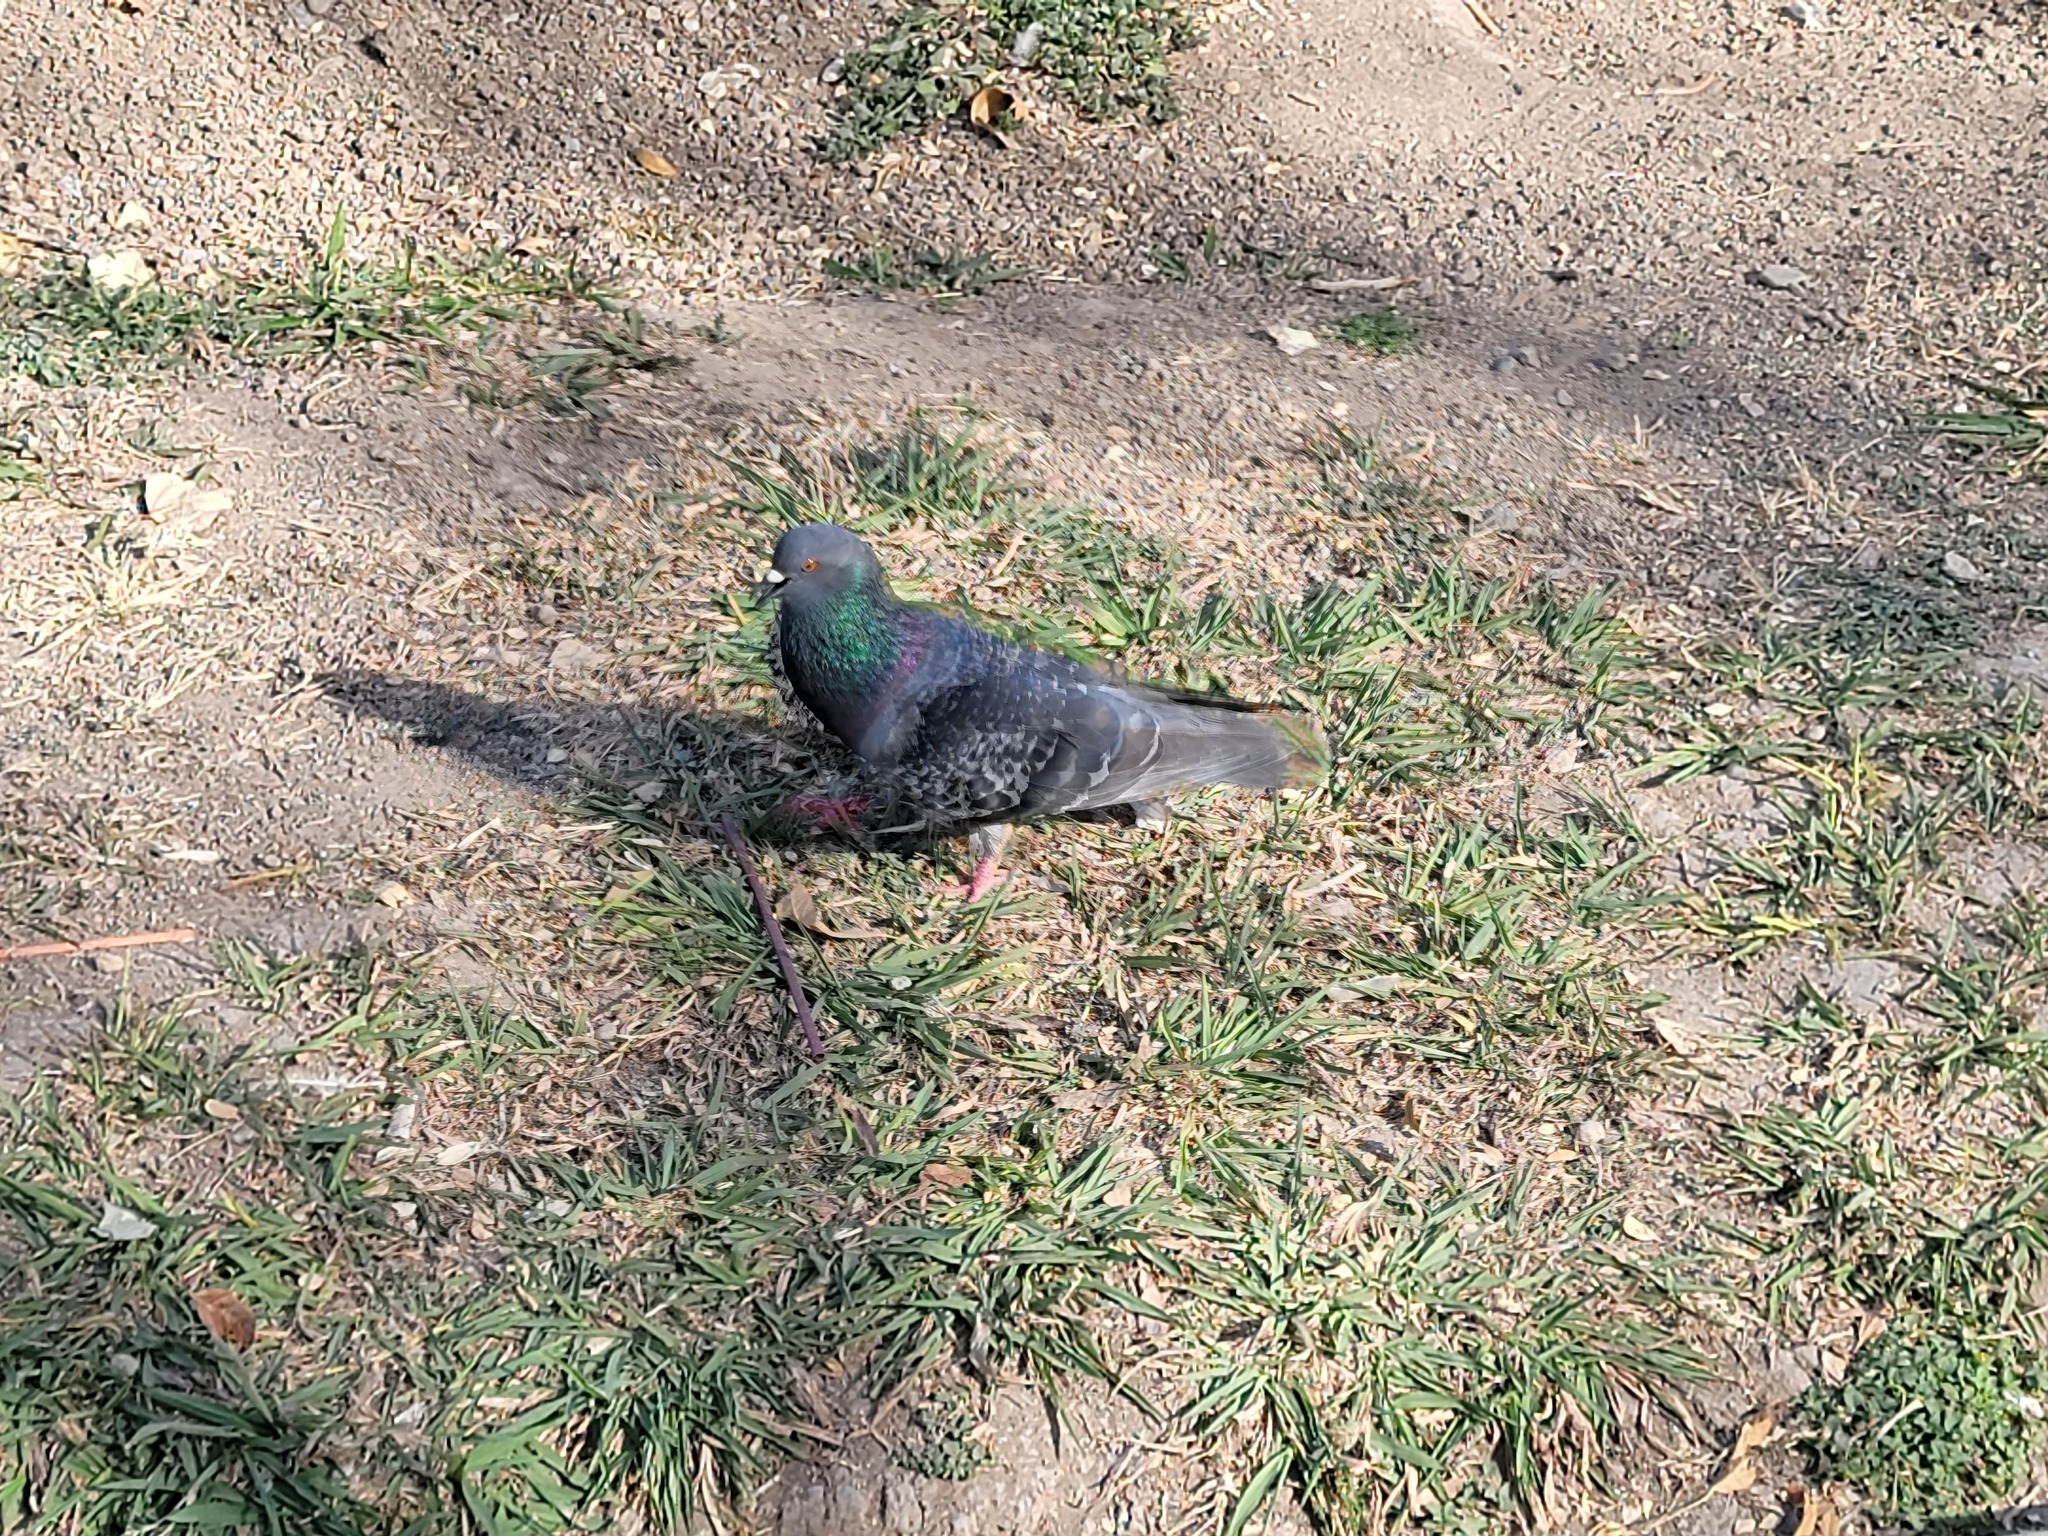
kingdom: Animalia
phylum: Chordata
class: Aves
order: Columbiformes
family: Columbidae
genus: Columba
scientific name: Columba livia
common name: Rock pigeon
